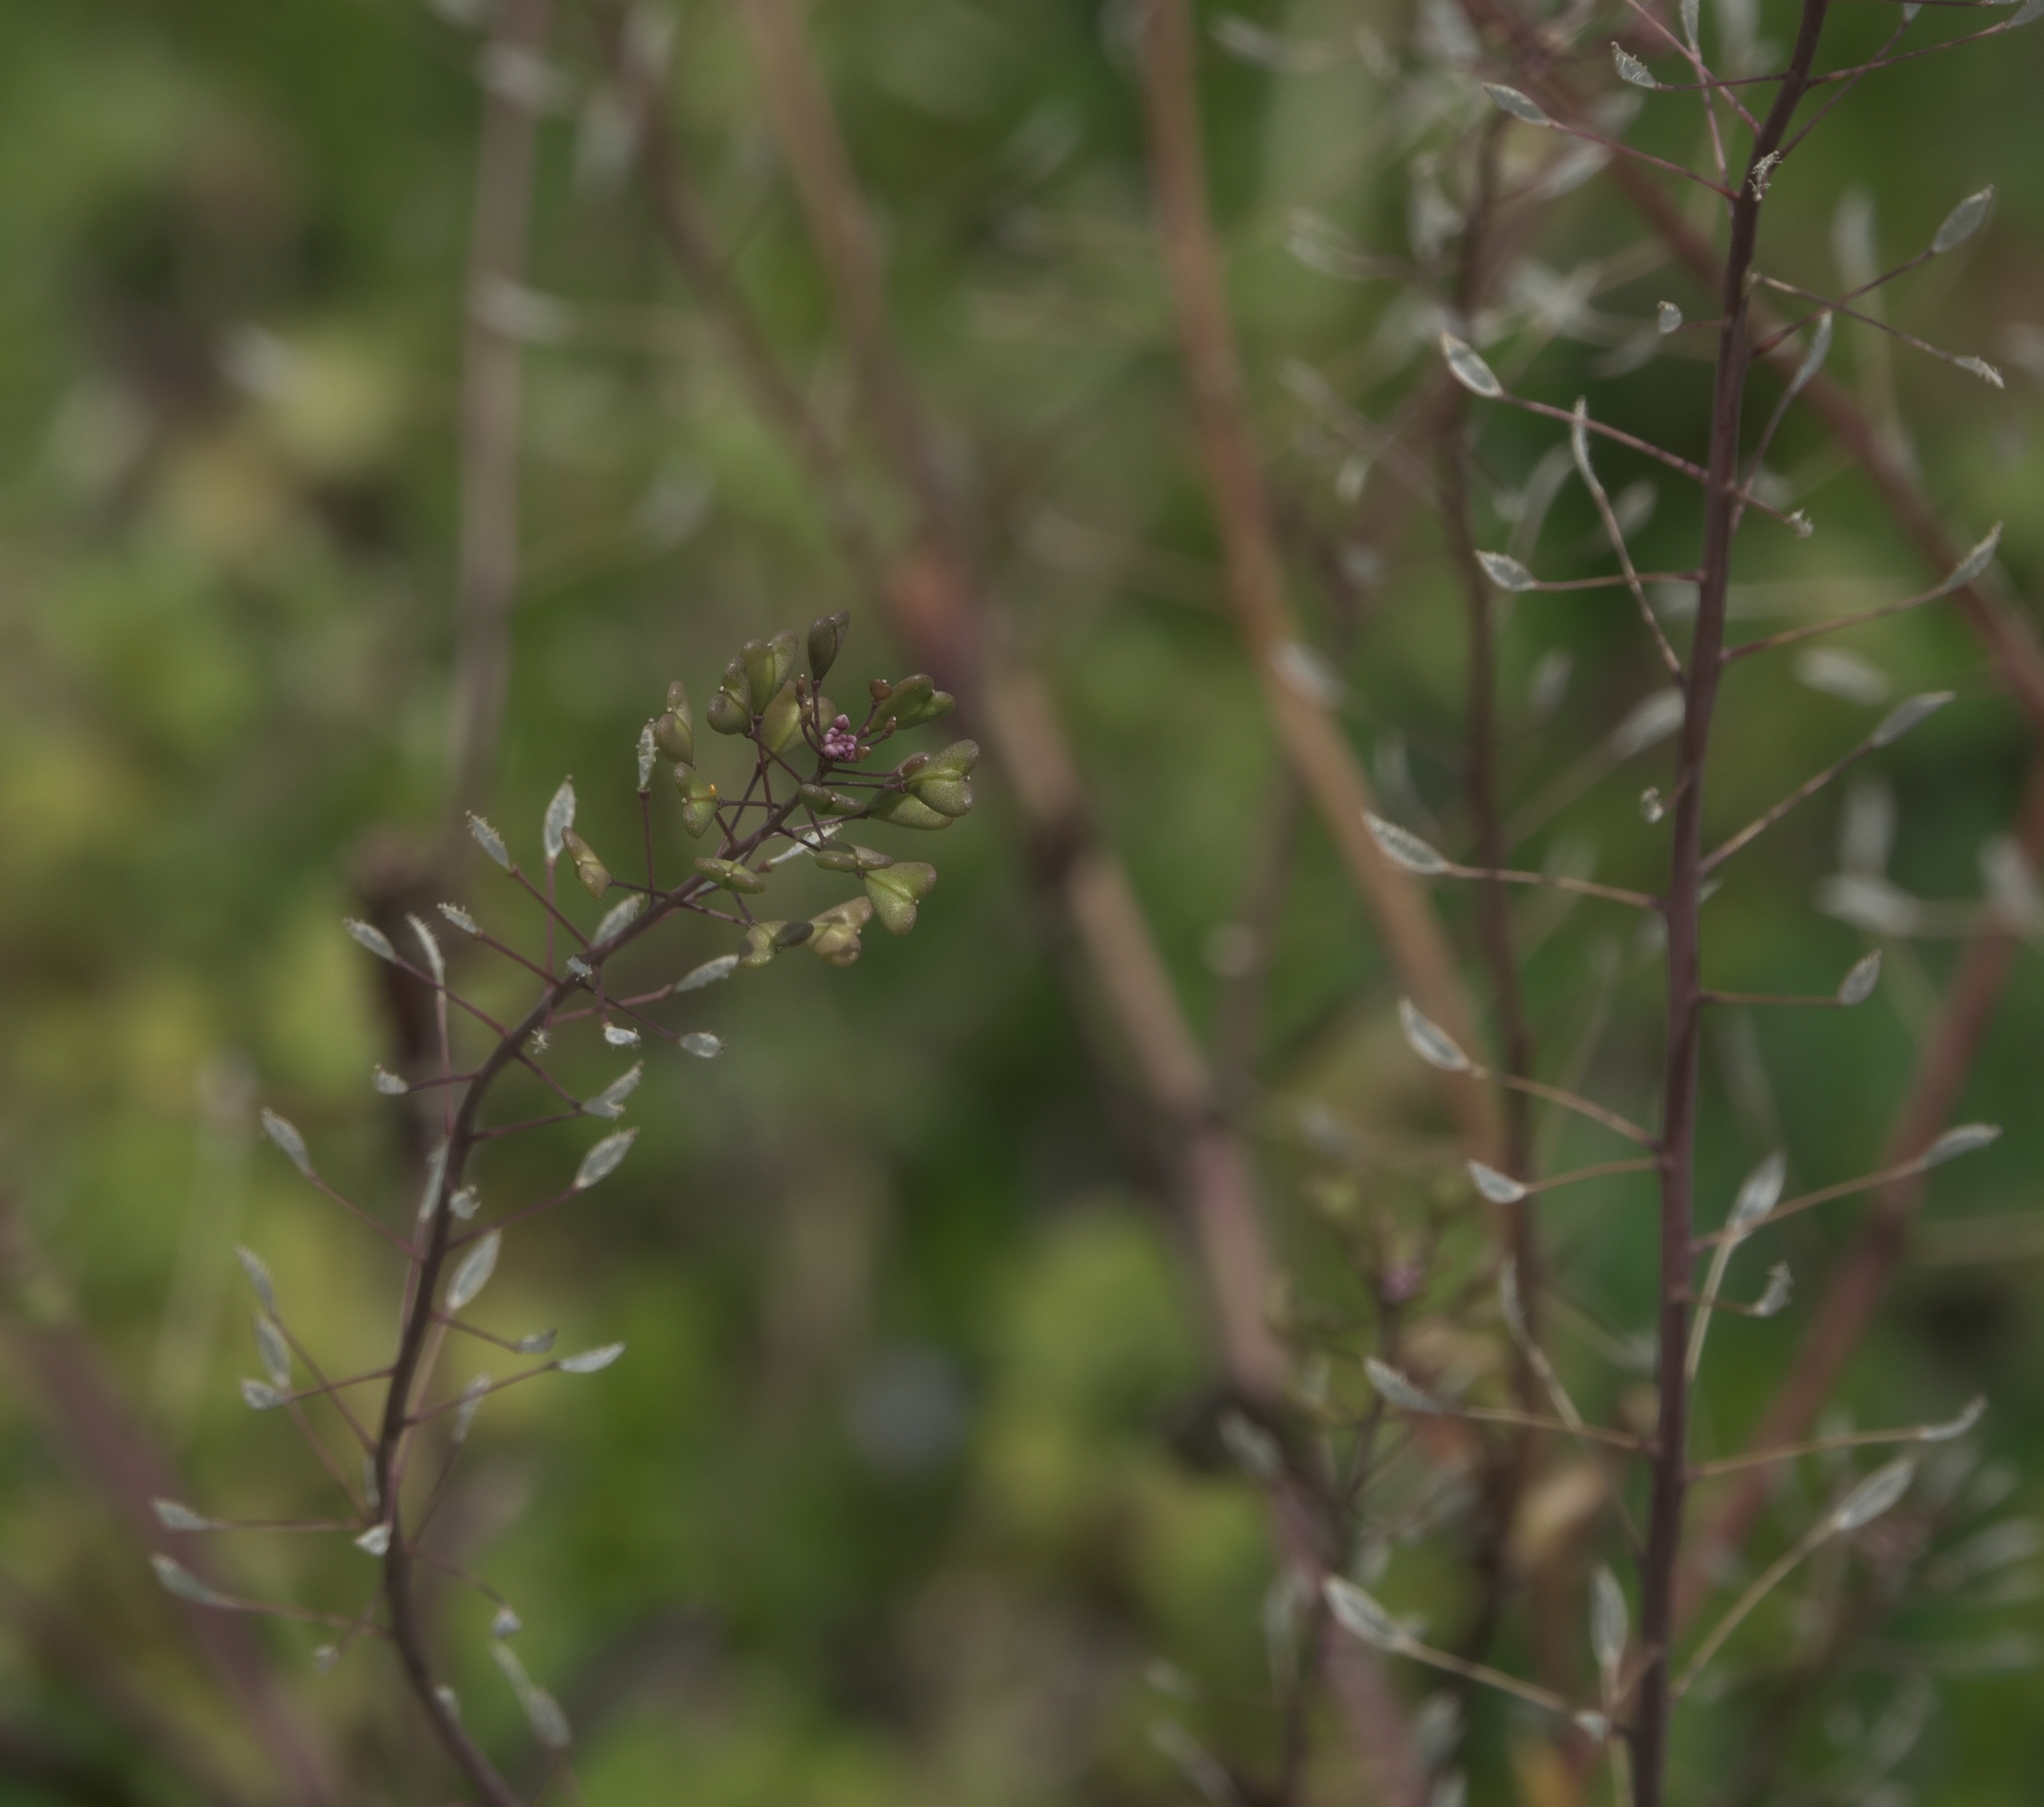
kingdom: Plantae
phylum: Tracheophyta
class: Magnoliopsida
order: Brassicales
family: Brassicaceae
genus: Capsella
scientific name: Capsella bursa-pastoris
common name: Shepherd's purse
